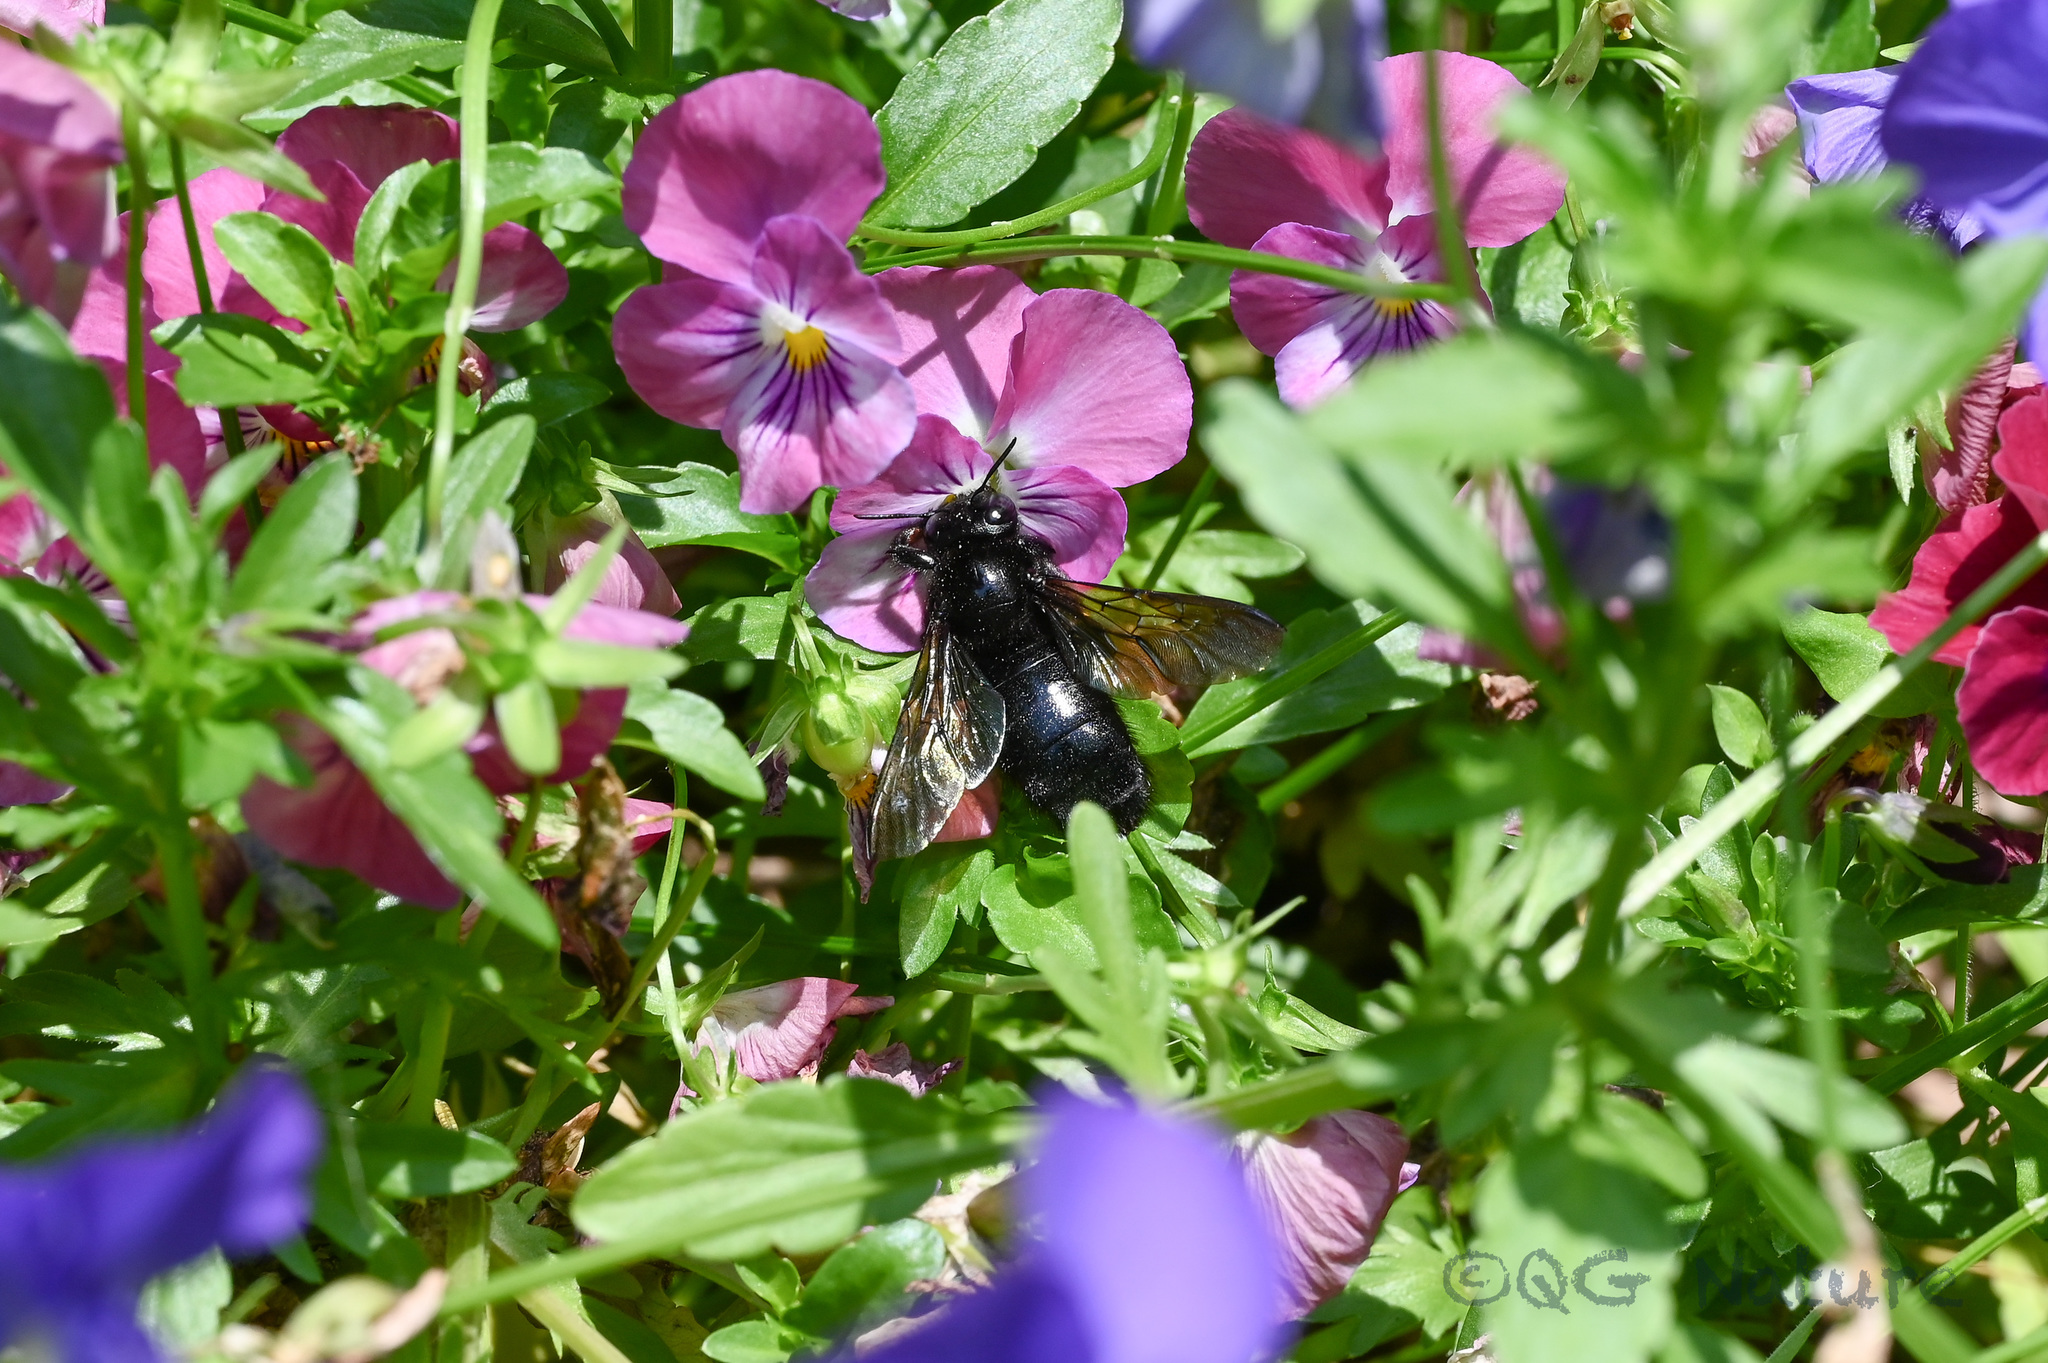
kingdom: Animalia
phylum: Arthropoda
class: Insecta
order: Hymenoptera
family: Apidae
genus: Xylocopa
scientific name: Xylocopa tranquebarorum
